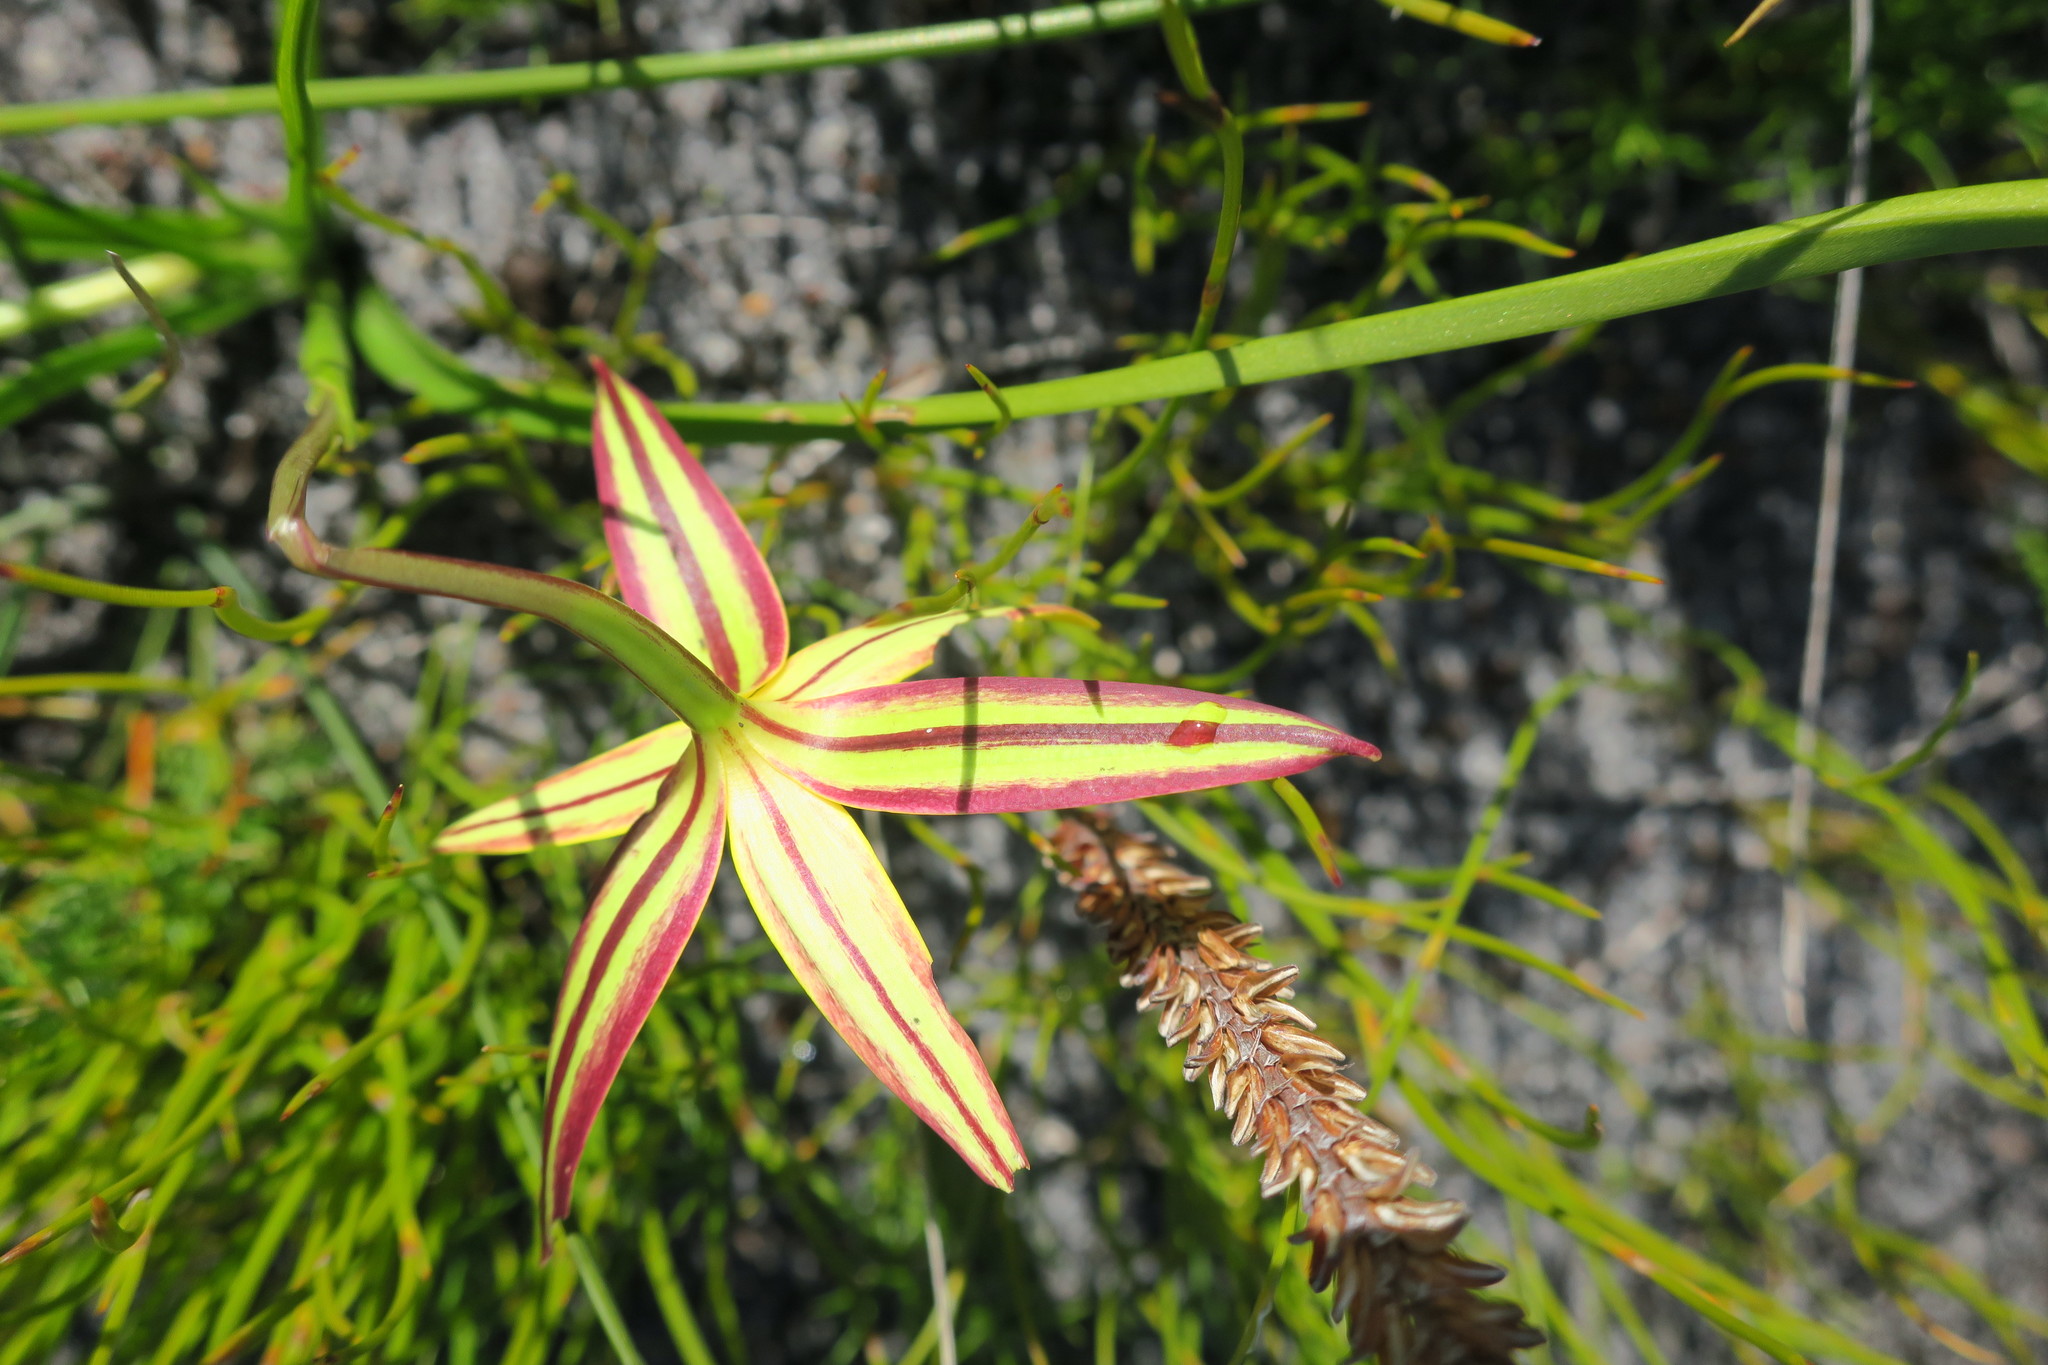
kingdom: Plantae
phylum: Tracheophyta
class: Liliopsida
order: Asparagales
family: Hypoxidaceae
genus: Pauridia
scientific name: Pauridia capensis
